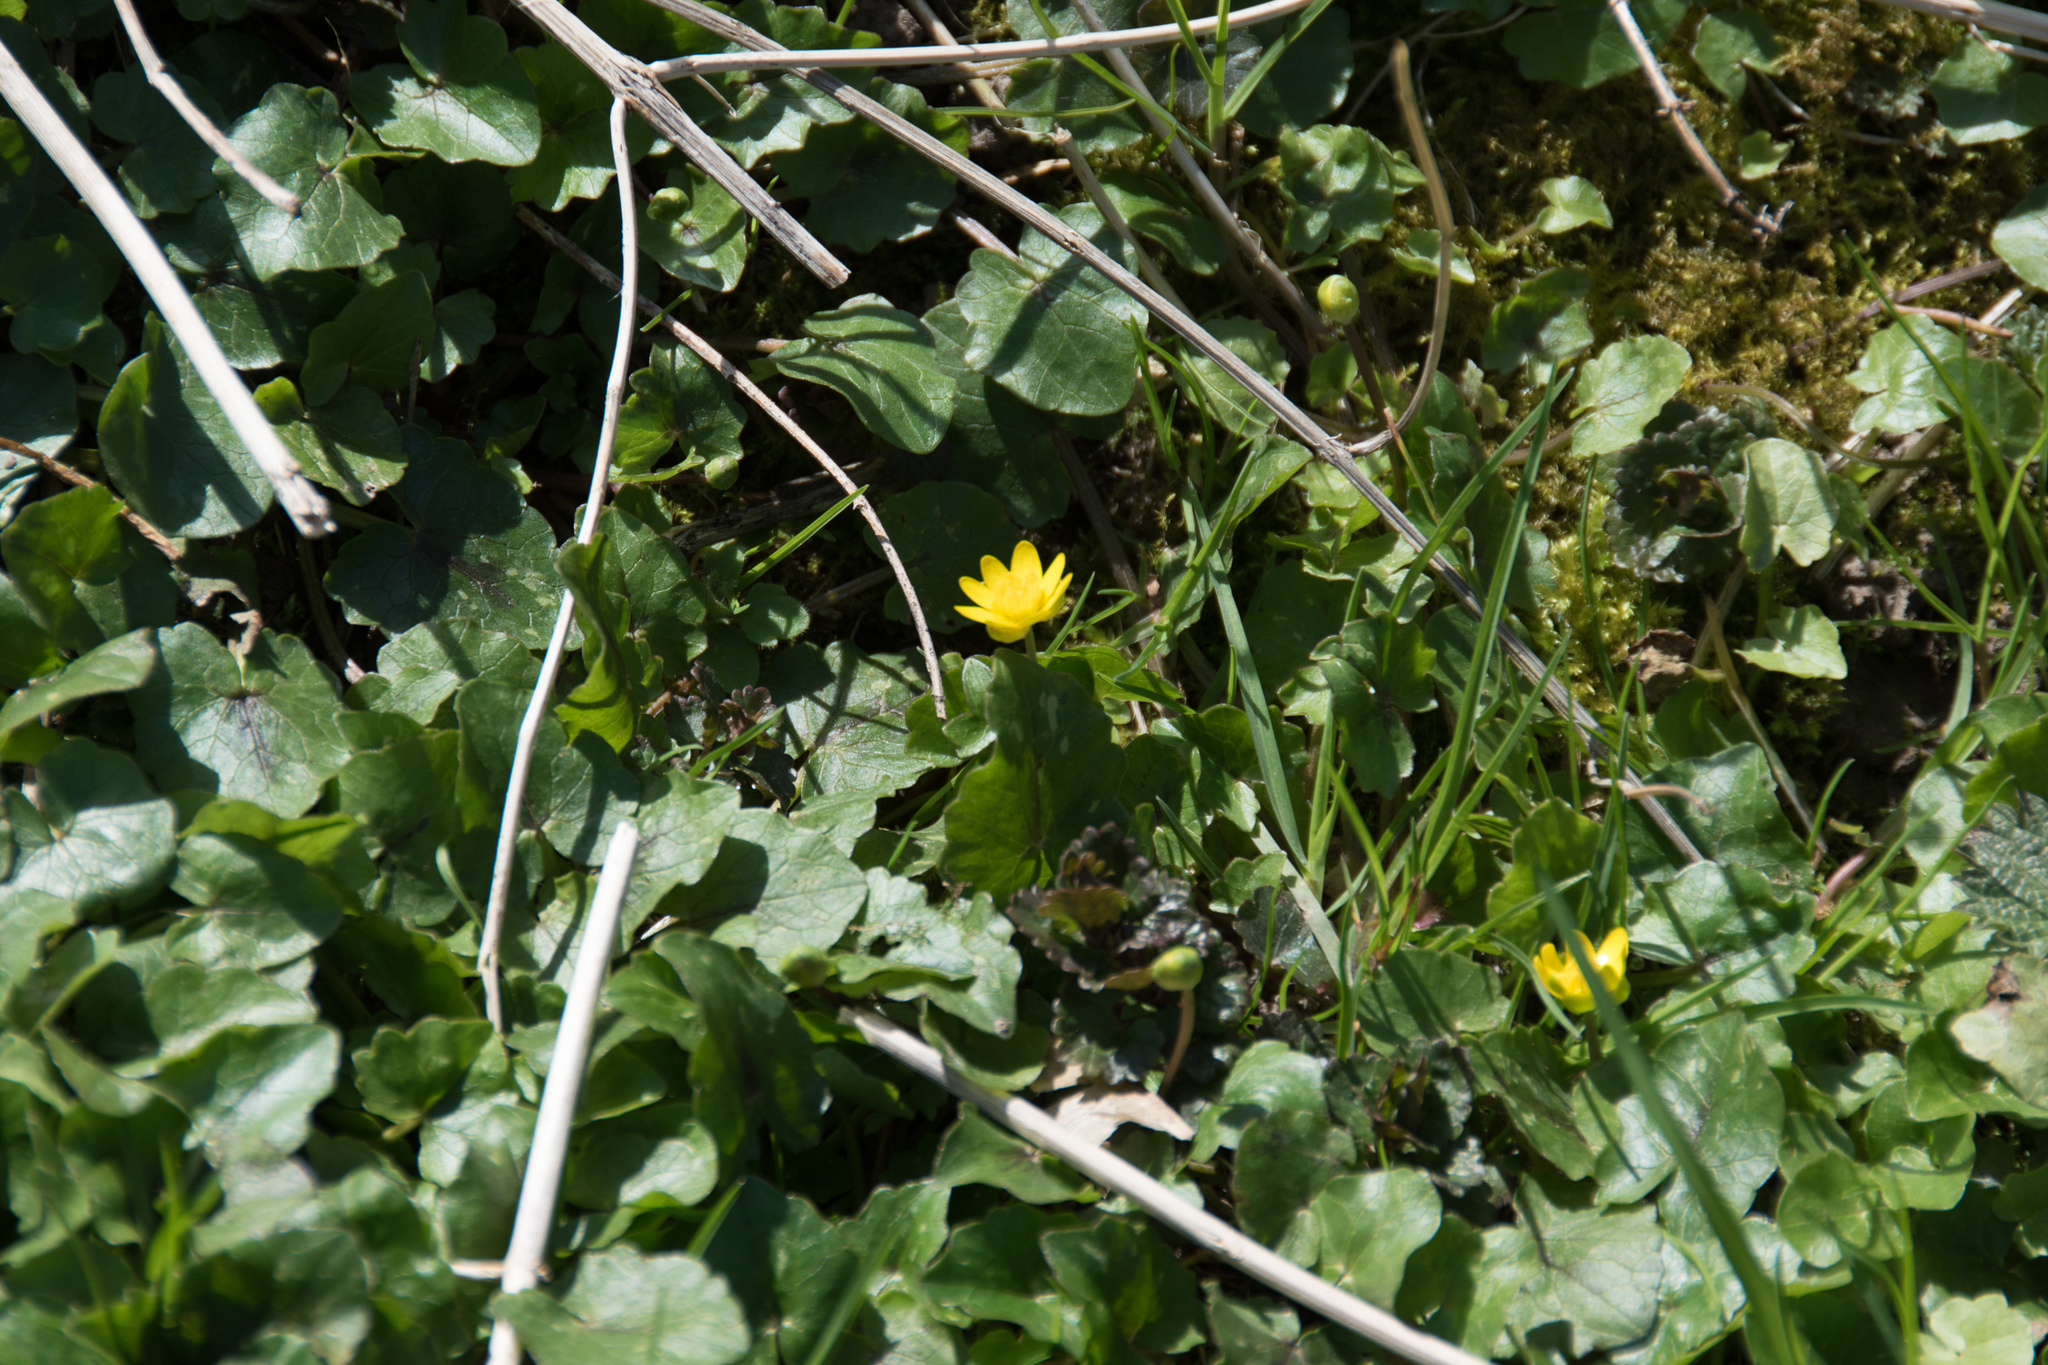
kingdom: Plantae
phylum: Tracheophyta
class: Magnoliopsida
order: Ranunculales
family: Ranunculaceae
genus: Ficaria
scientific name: Ficaria verna
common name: Lesser celandine
